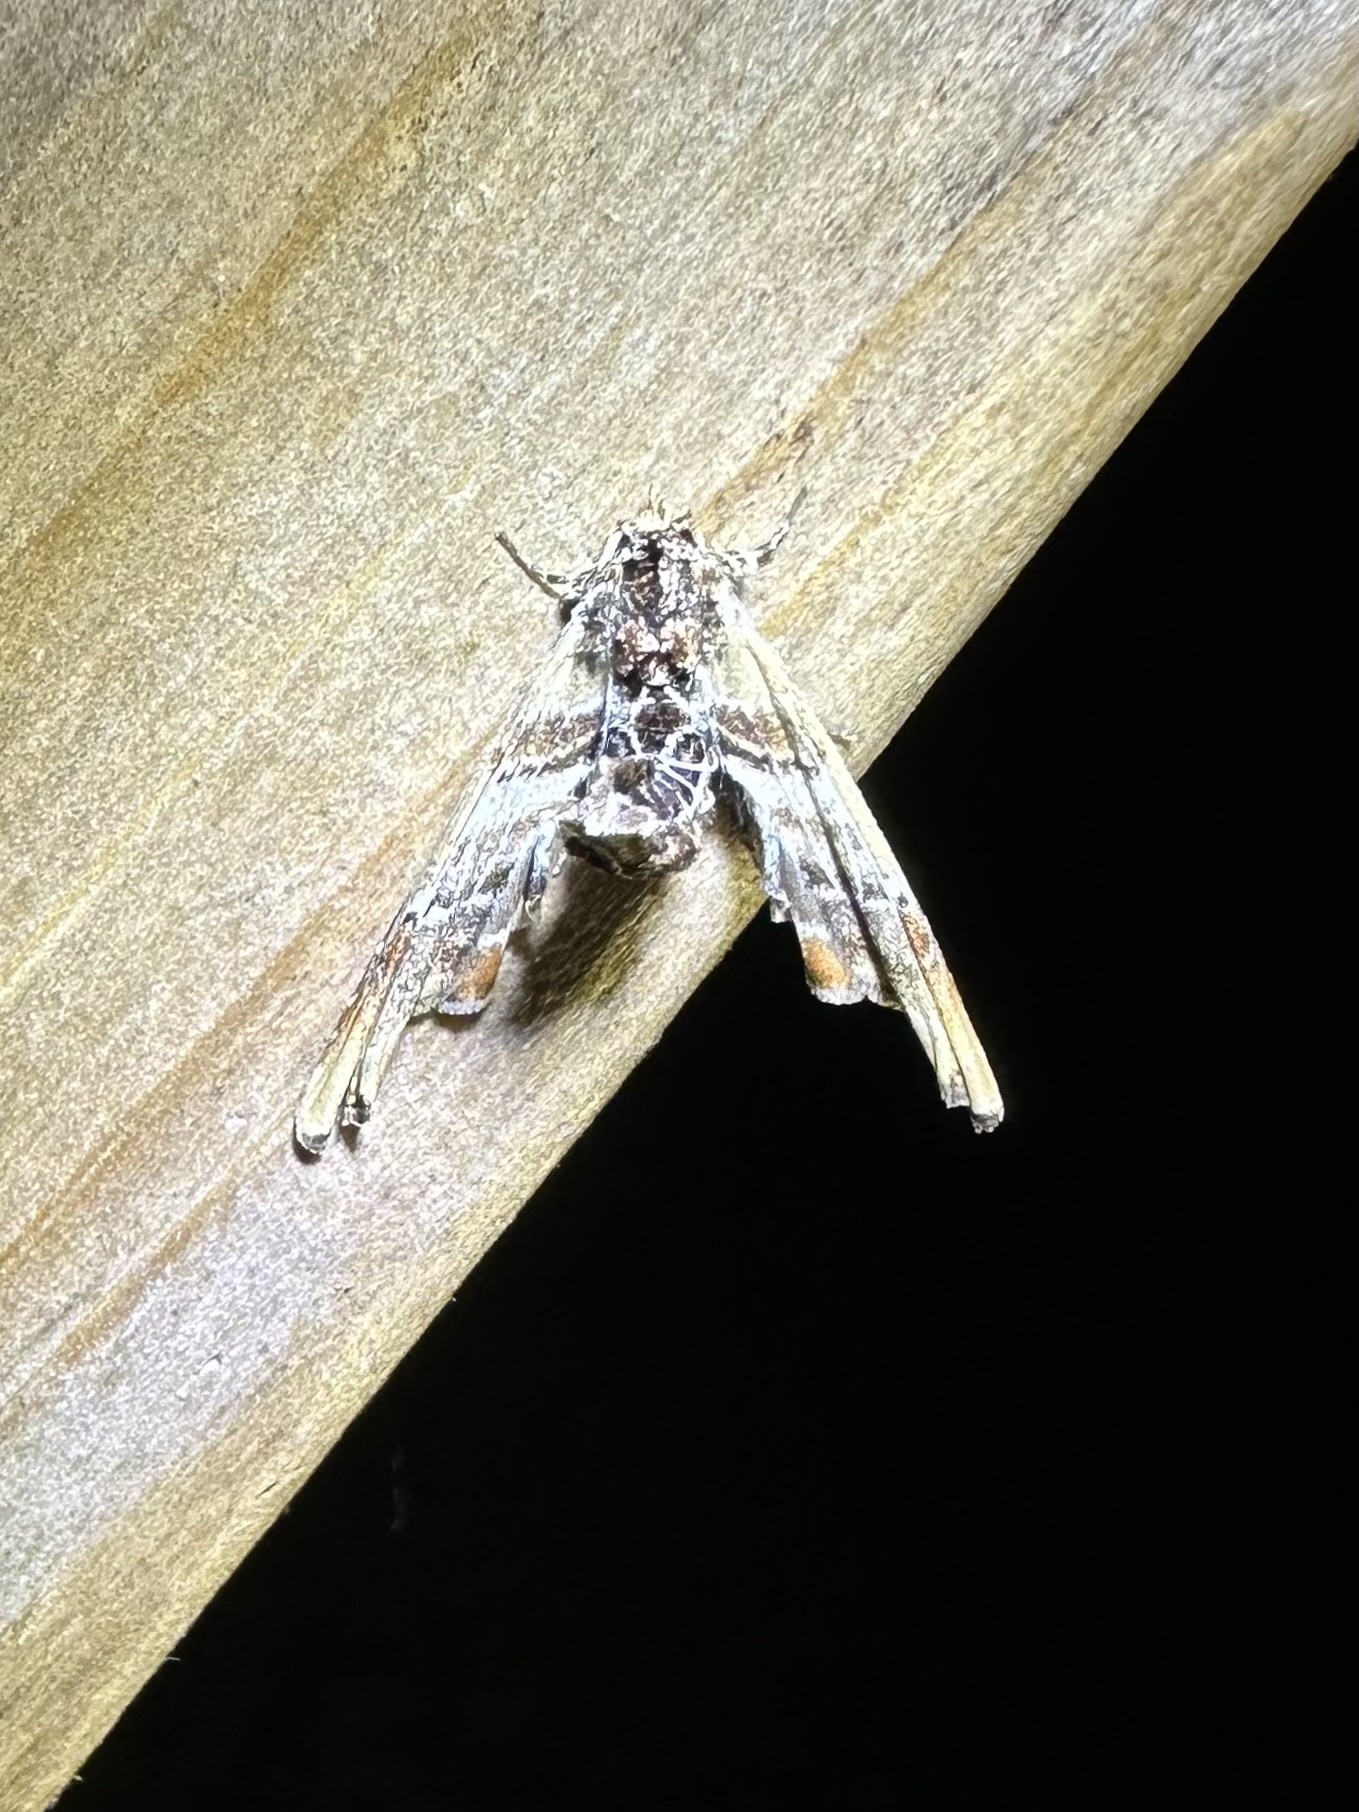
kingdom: Animalia
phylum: Arthropoda
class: Insecta
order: Lepidoptera
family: Euteliidae
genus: Marathyssa
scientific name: Marathyssa basalis
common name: Light marathyssa moth
